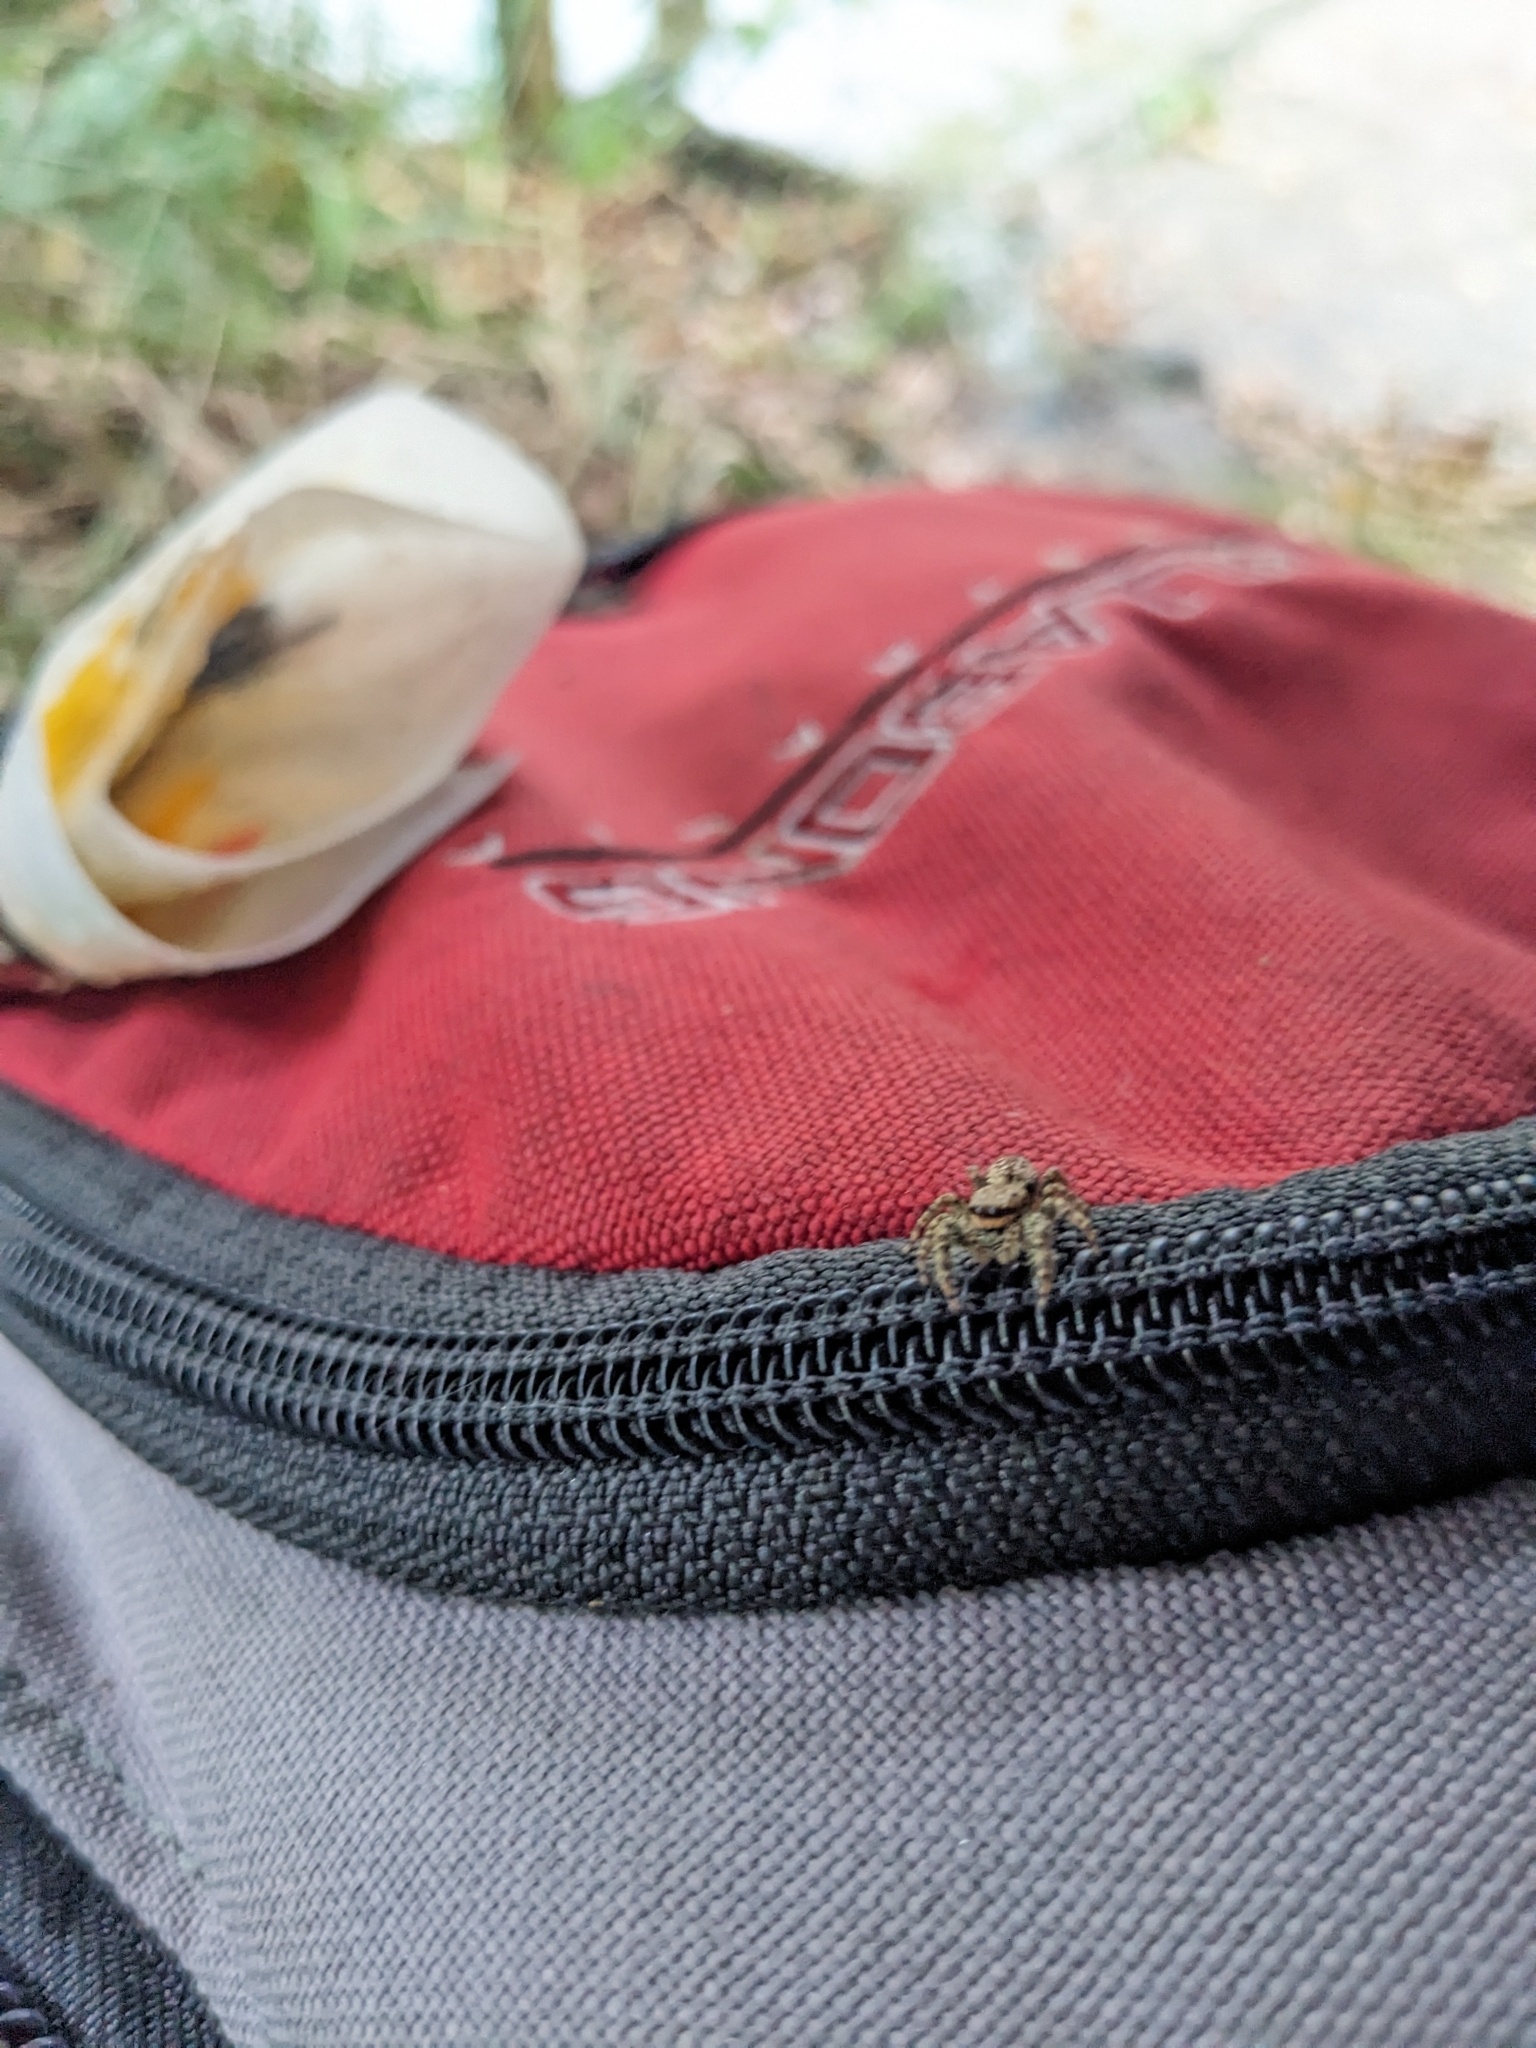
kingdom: Animalia
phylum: Arthropoda
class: Arachnida
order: Araneae
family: Salticidae
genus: Marpissa
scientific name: Marpissa muscosa
